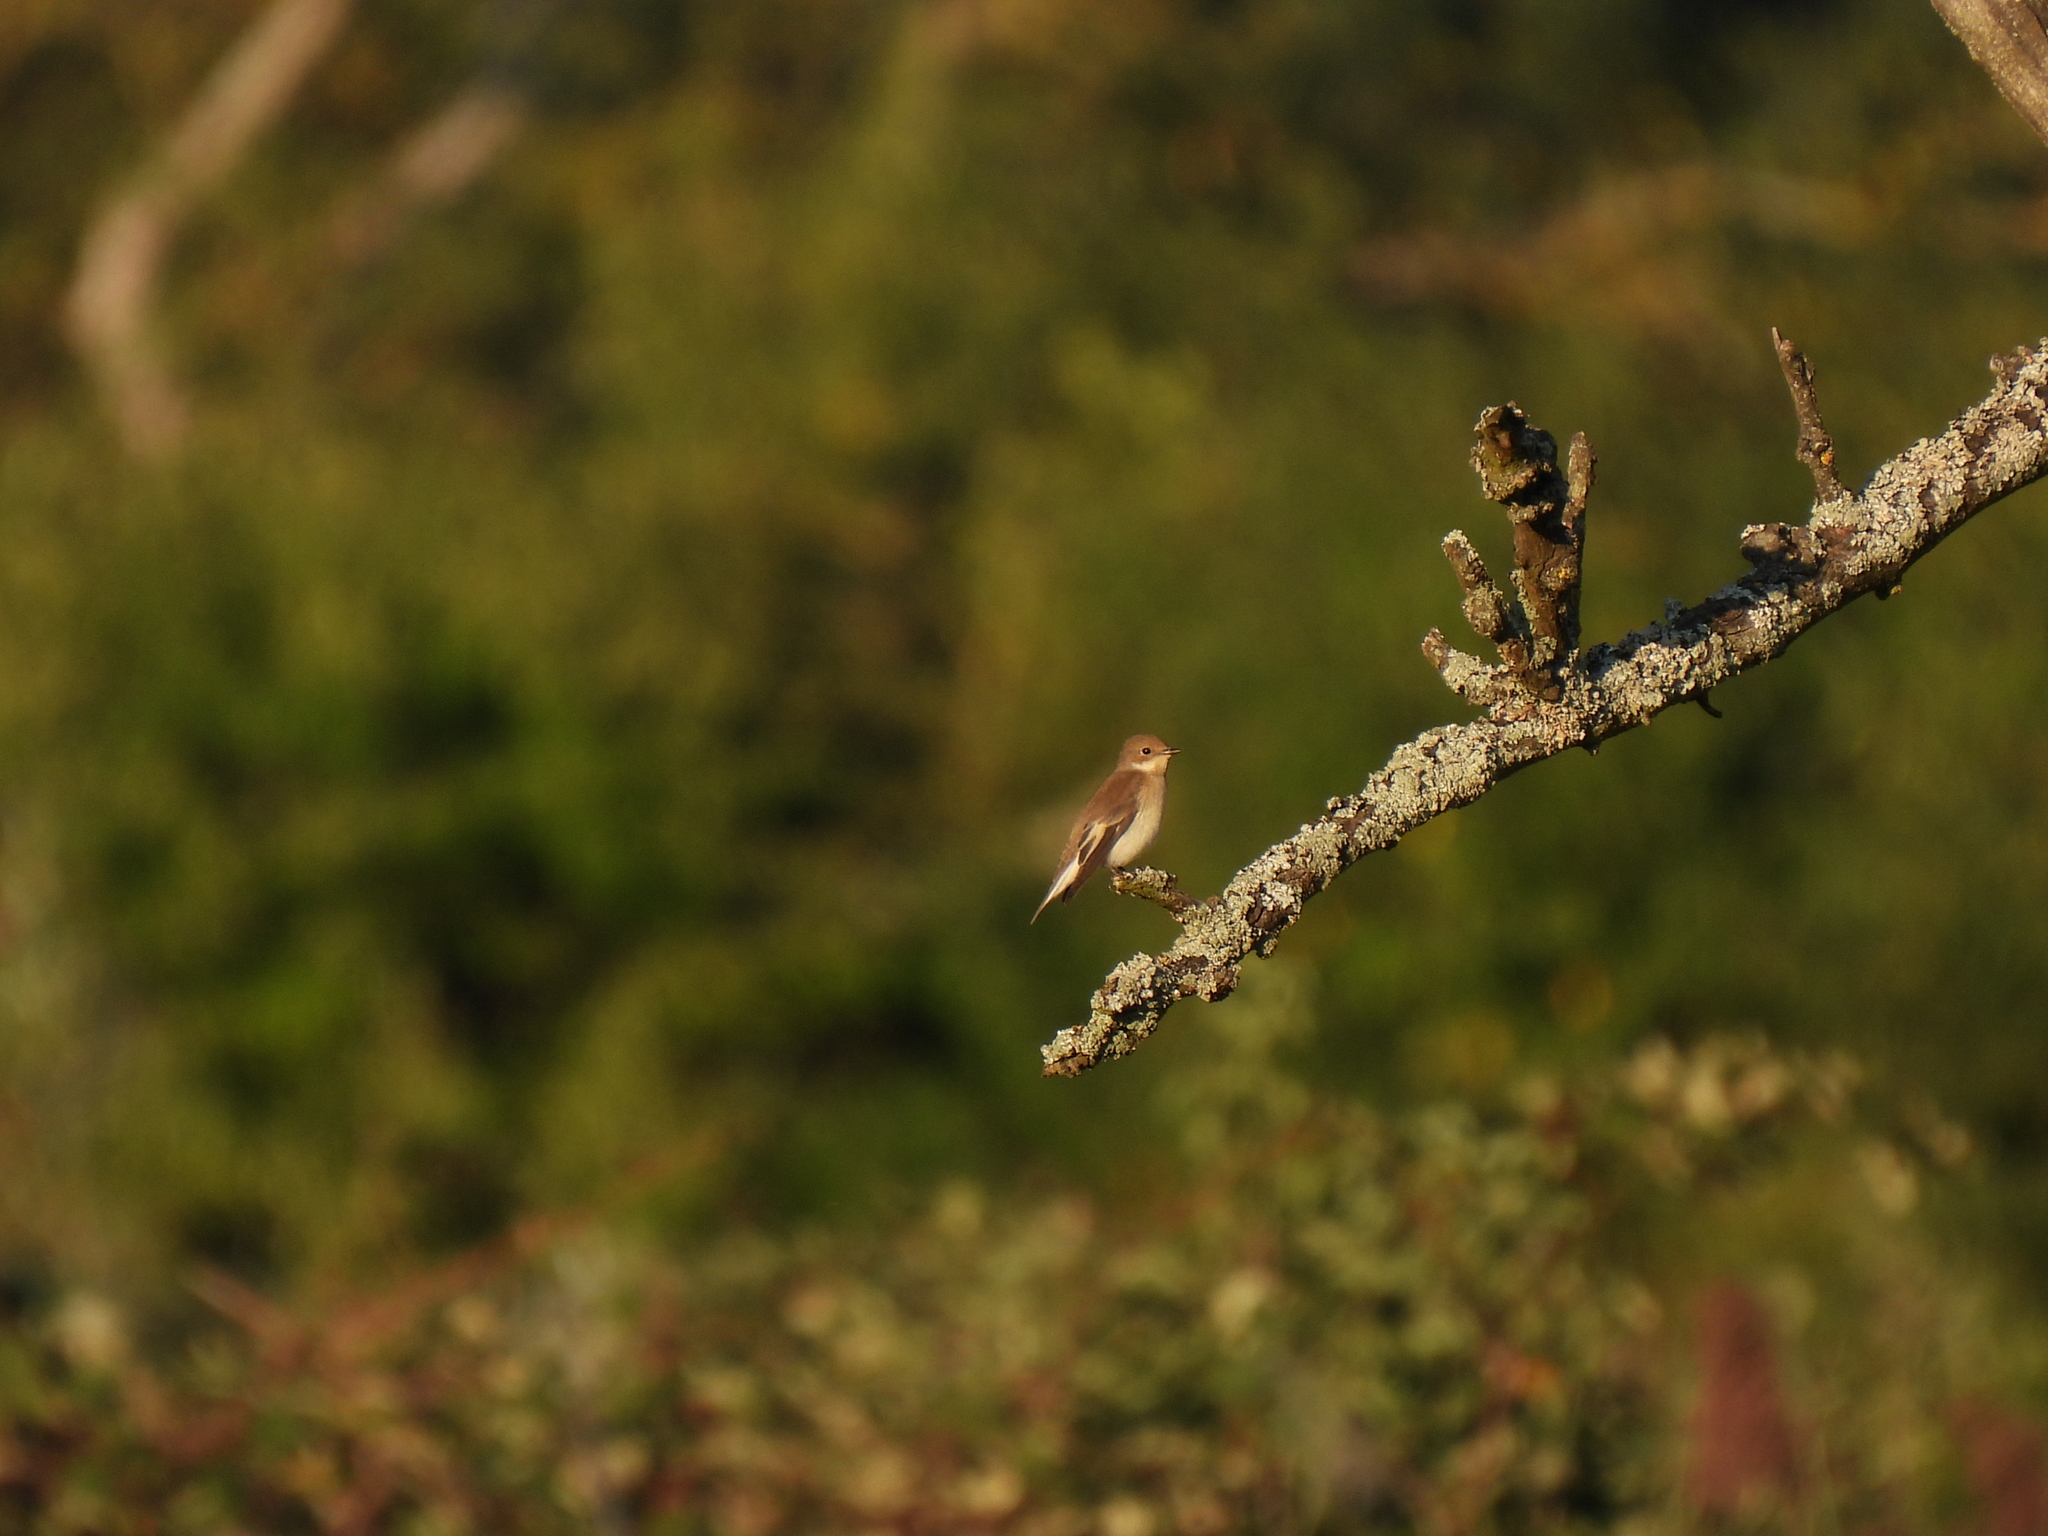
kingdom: Animalia
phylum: Chordata
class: Aves
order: Passeriformes
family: Muscicapidae
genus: Ficedula
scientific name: Ficedula hypoleuca
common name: European pied flycatcher
